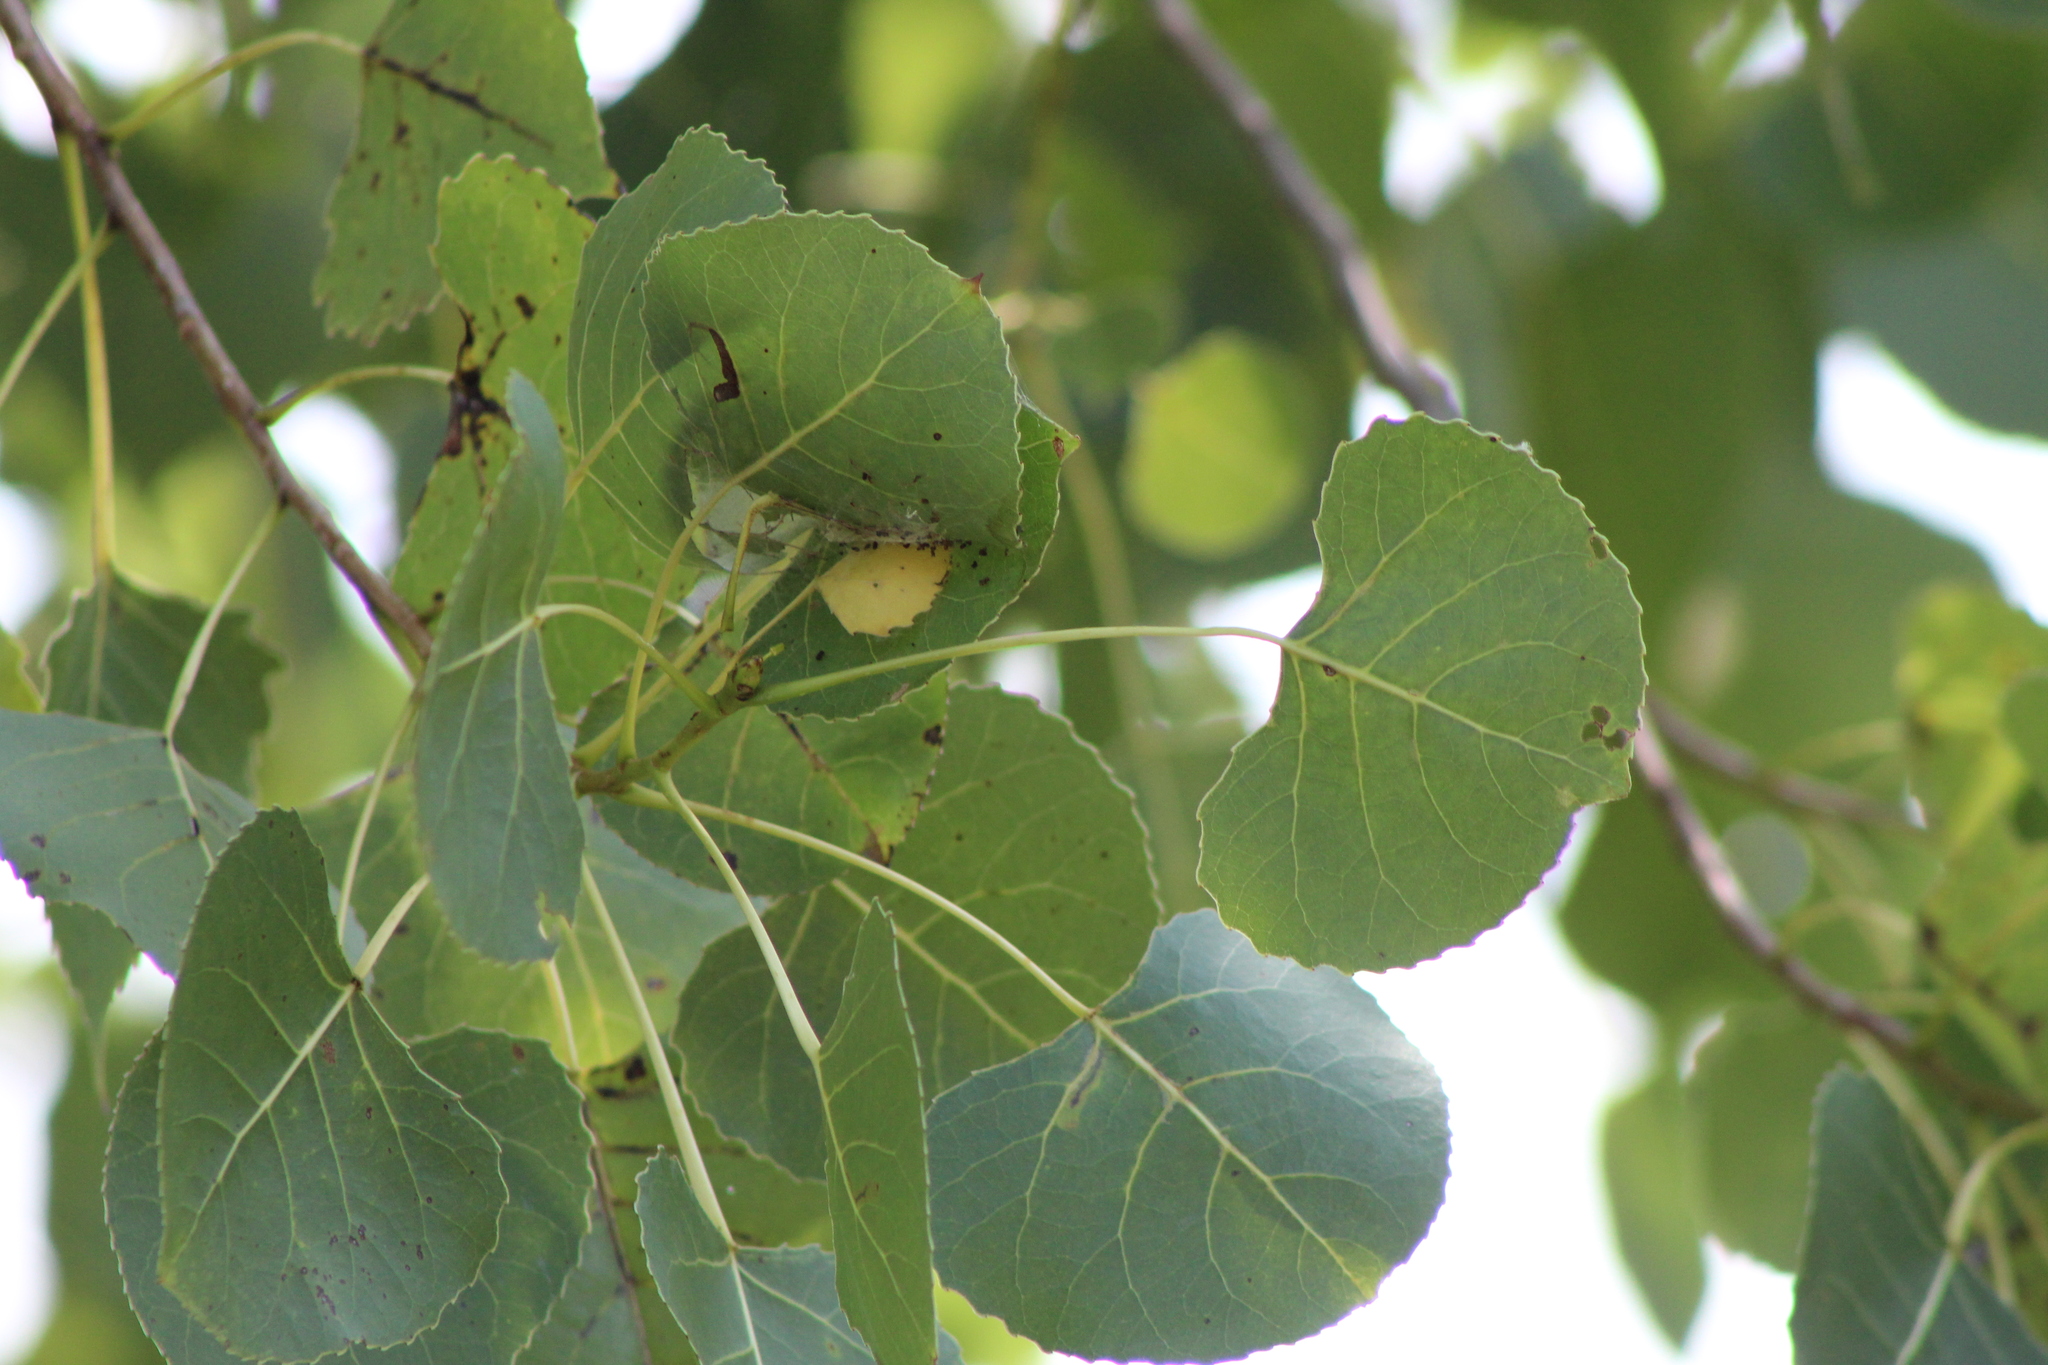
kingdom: Plantae
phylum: Tracheophyta
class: Magnoliopsida
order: Malpighiales
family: Salicaceae
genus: Populus
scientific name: Populus deltoides
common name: Eastern cottonwood
